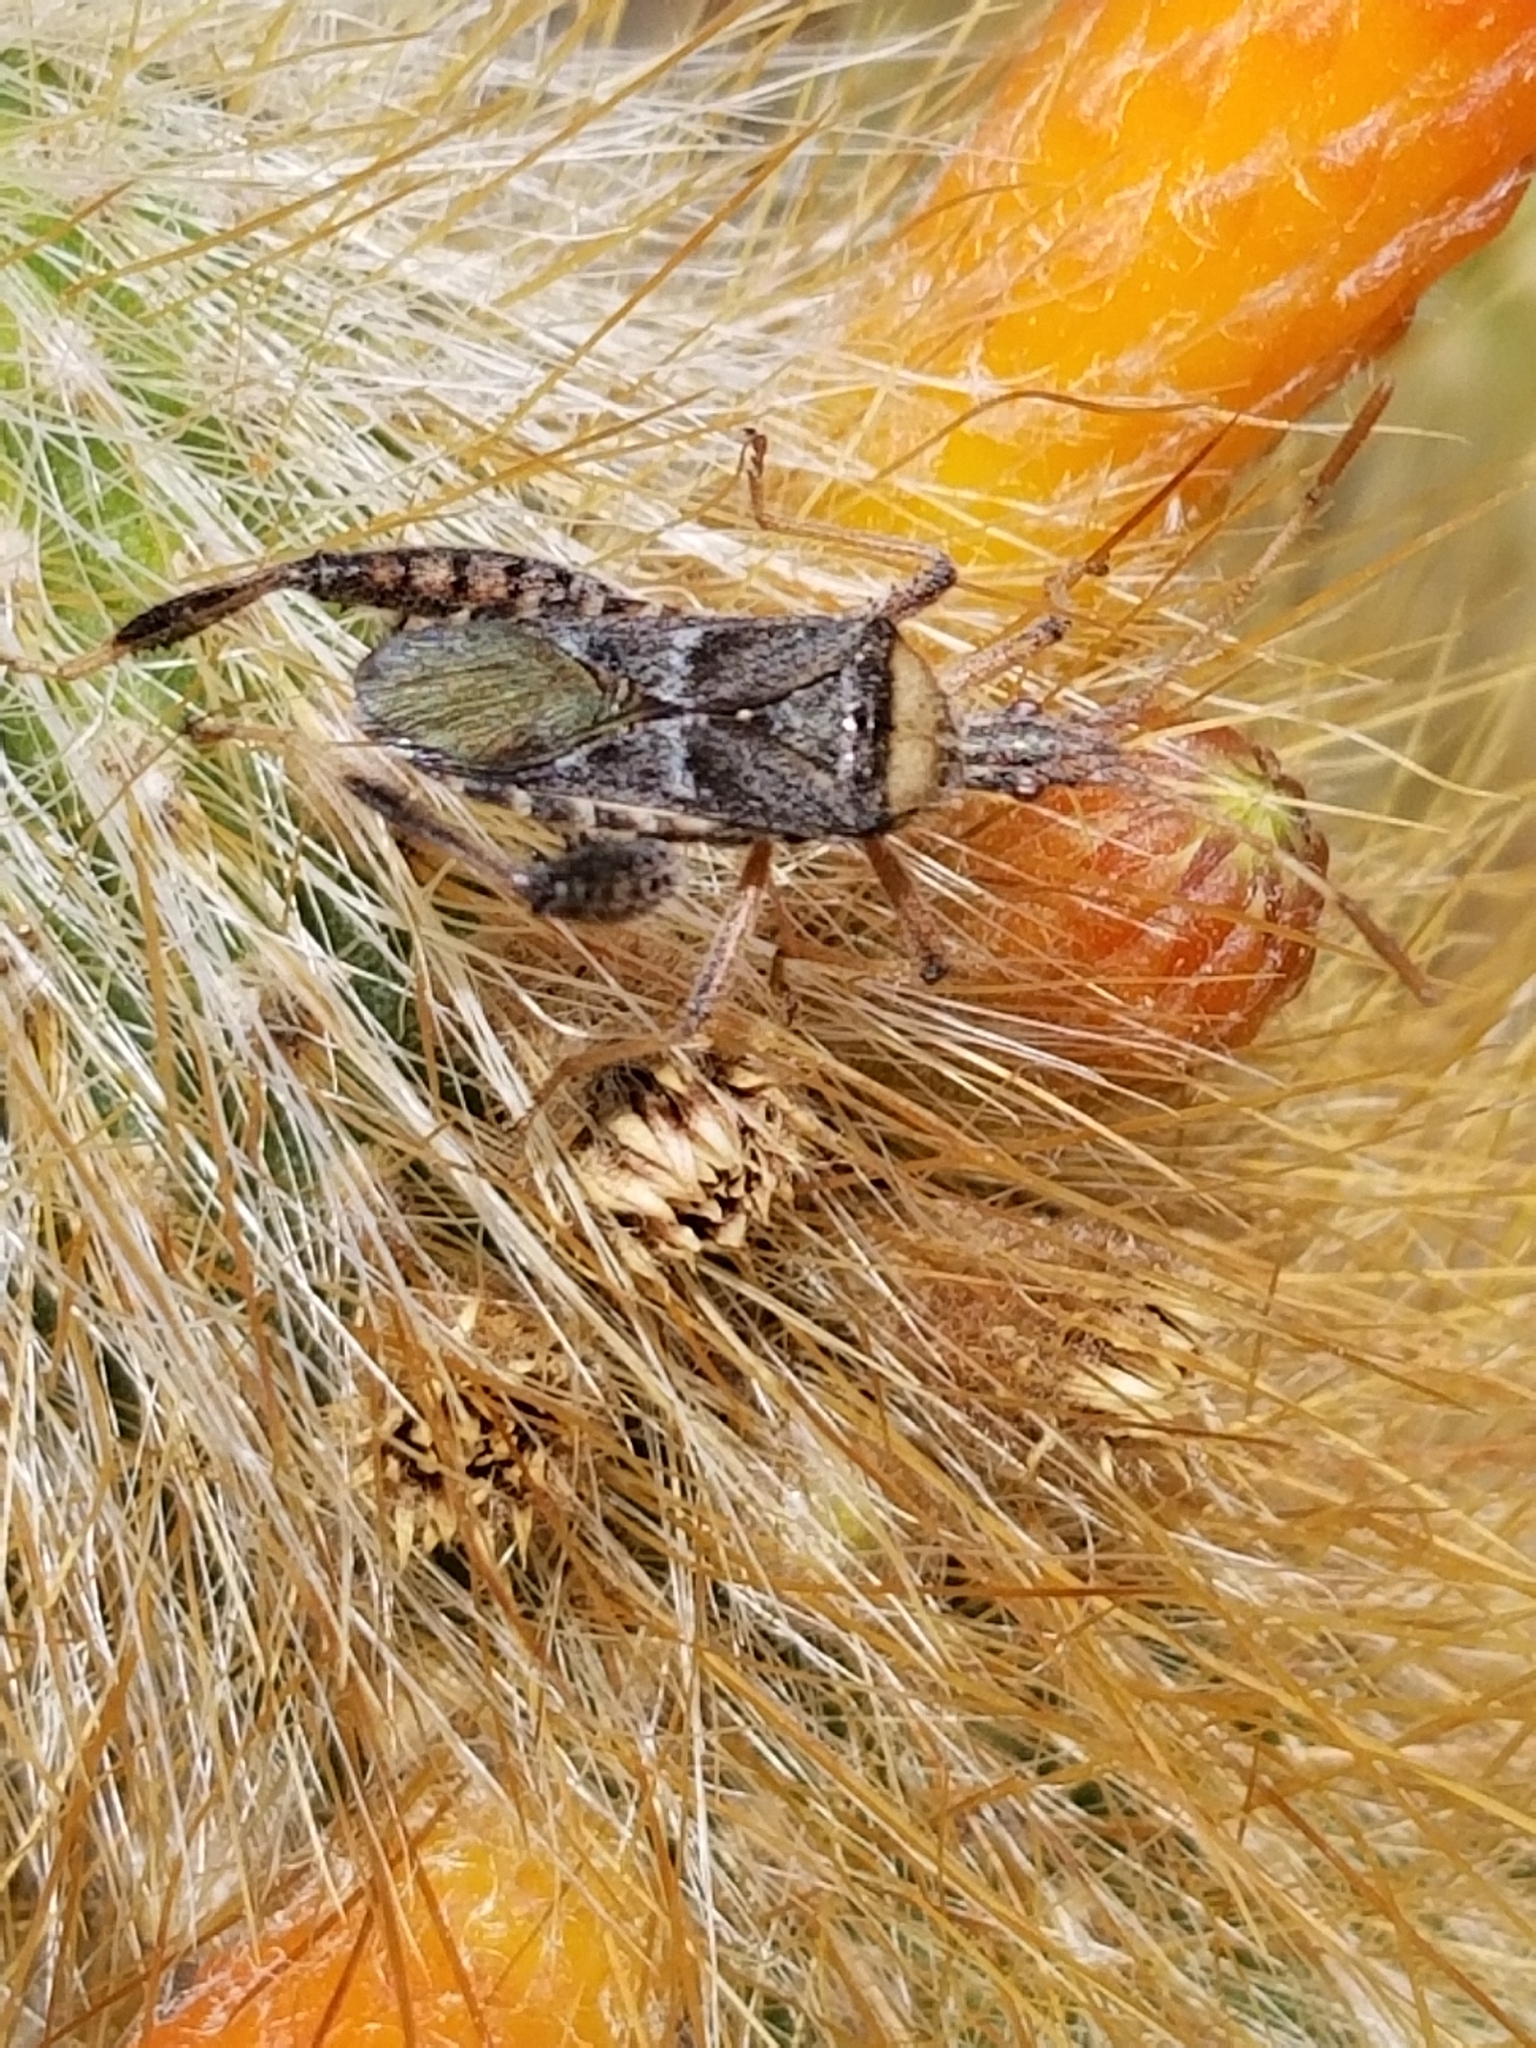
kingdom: Animalia
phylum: Arthropoda
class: Insecta
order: Hemiptera
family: Coreidae
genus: Narnia
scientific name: Narnia snowi
